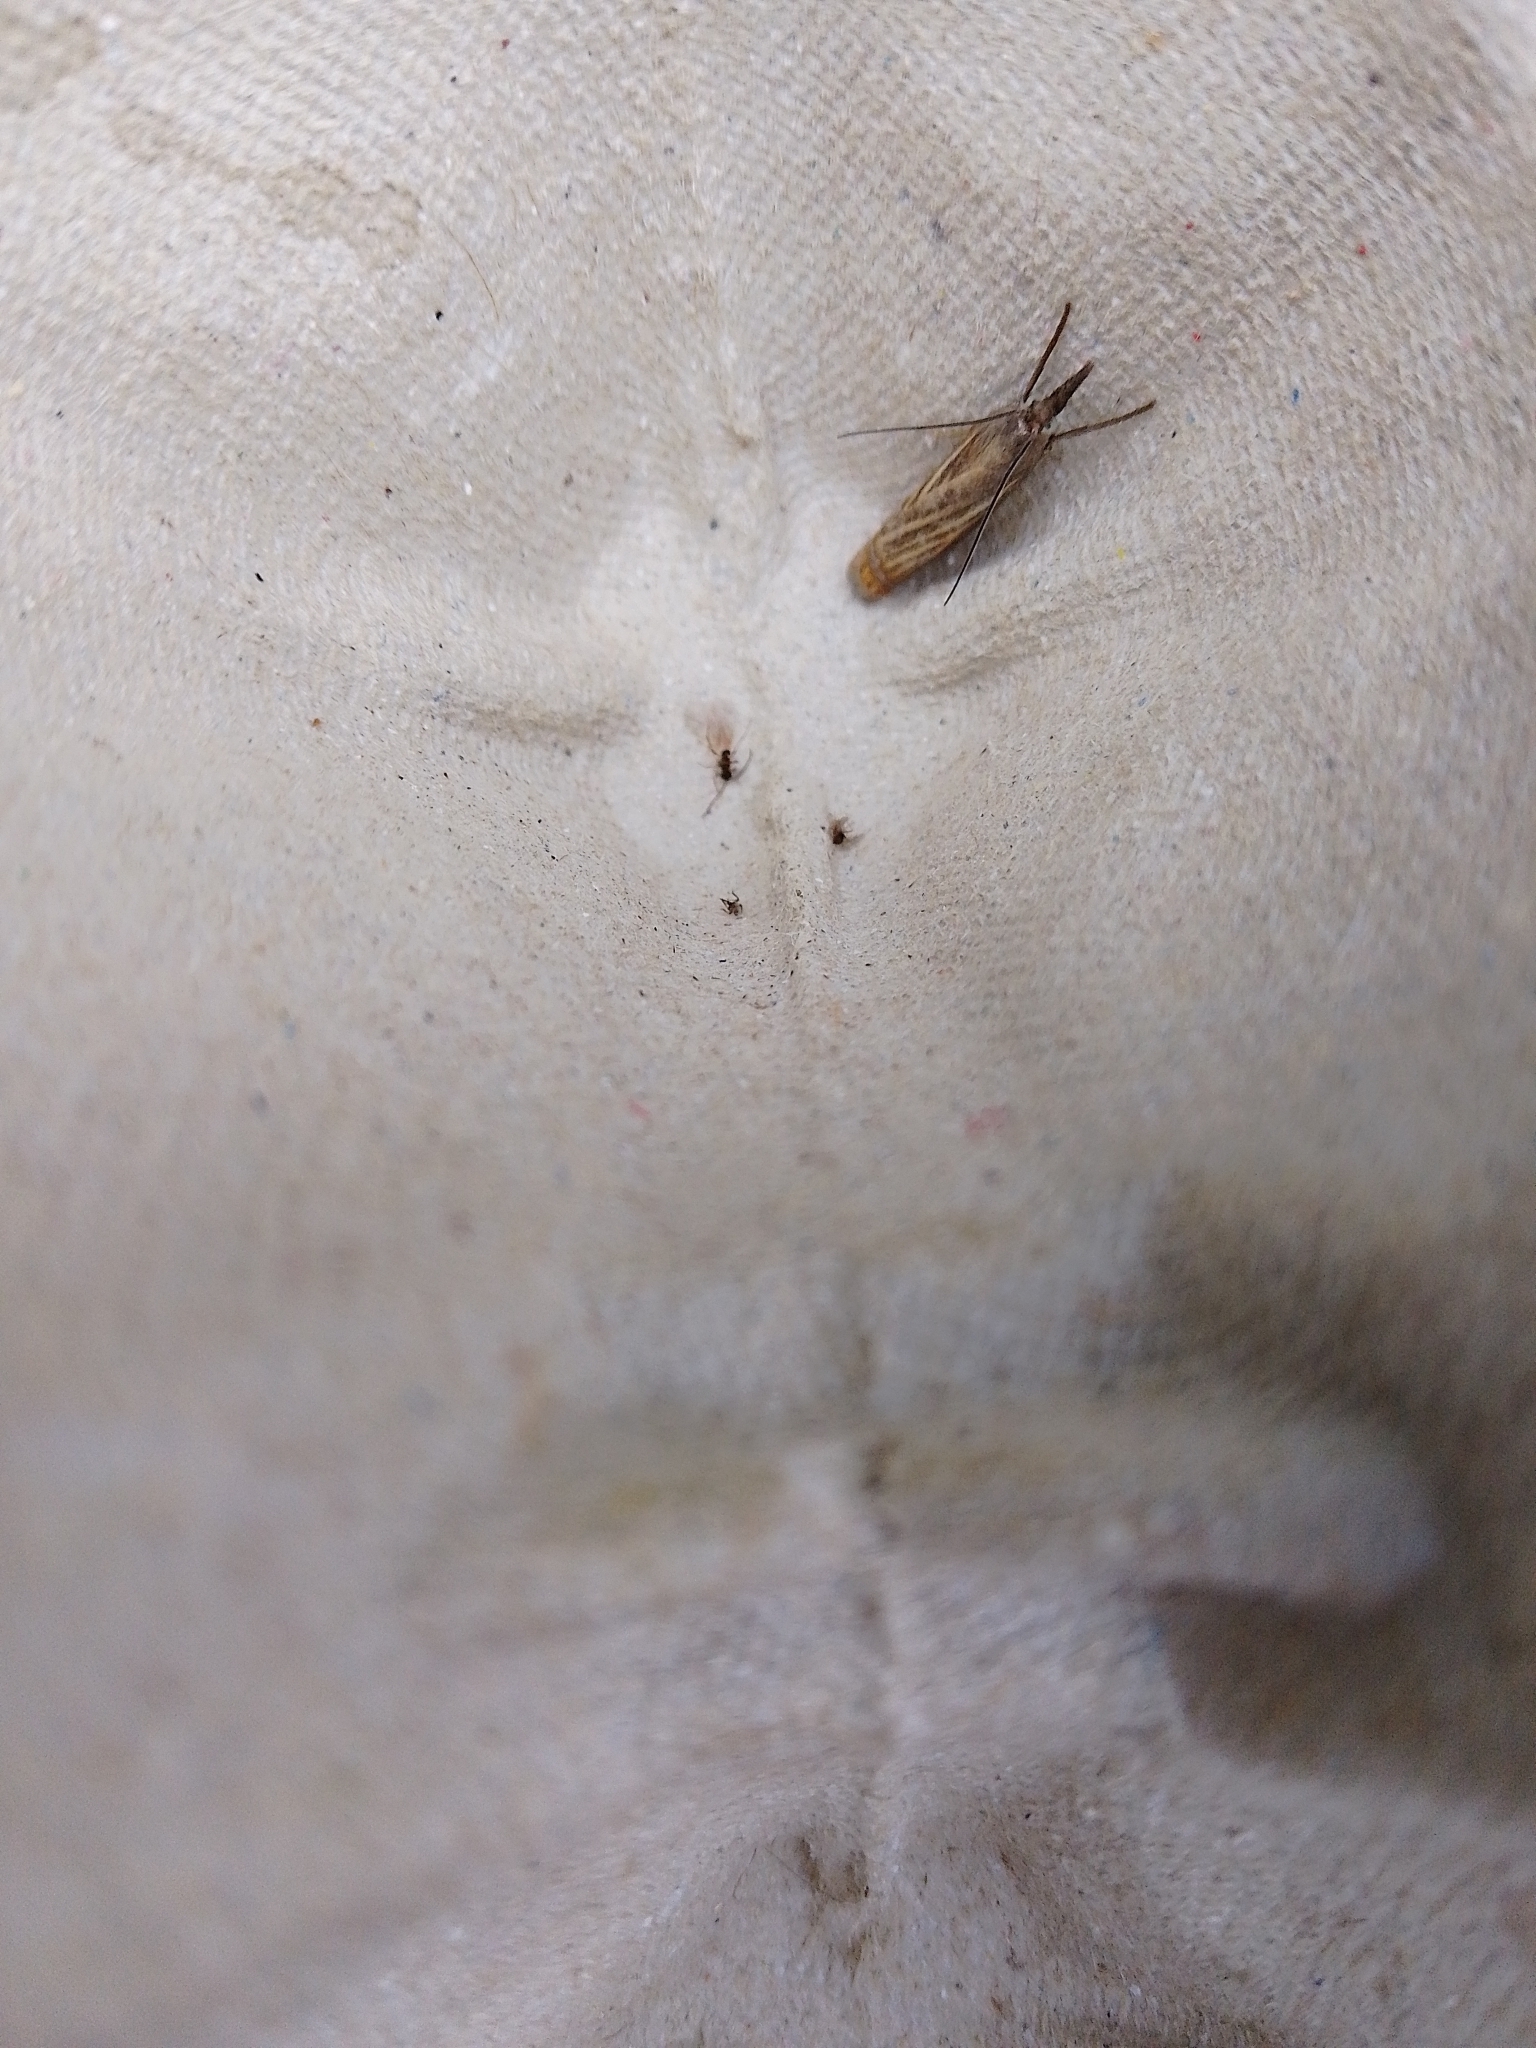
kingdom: Animalia
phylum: Arthropoda
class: Insecta
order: Lepidoptera
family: Crambidae
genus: Chrysoteuchia
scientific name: Chrysoteuchia culmella
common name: Garden grass-veneer
